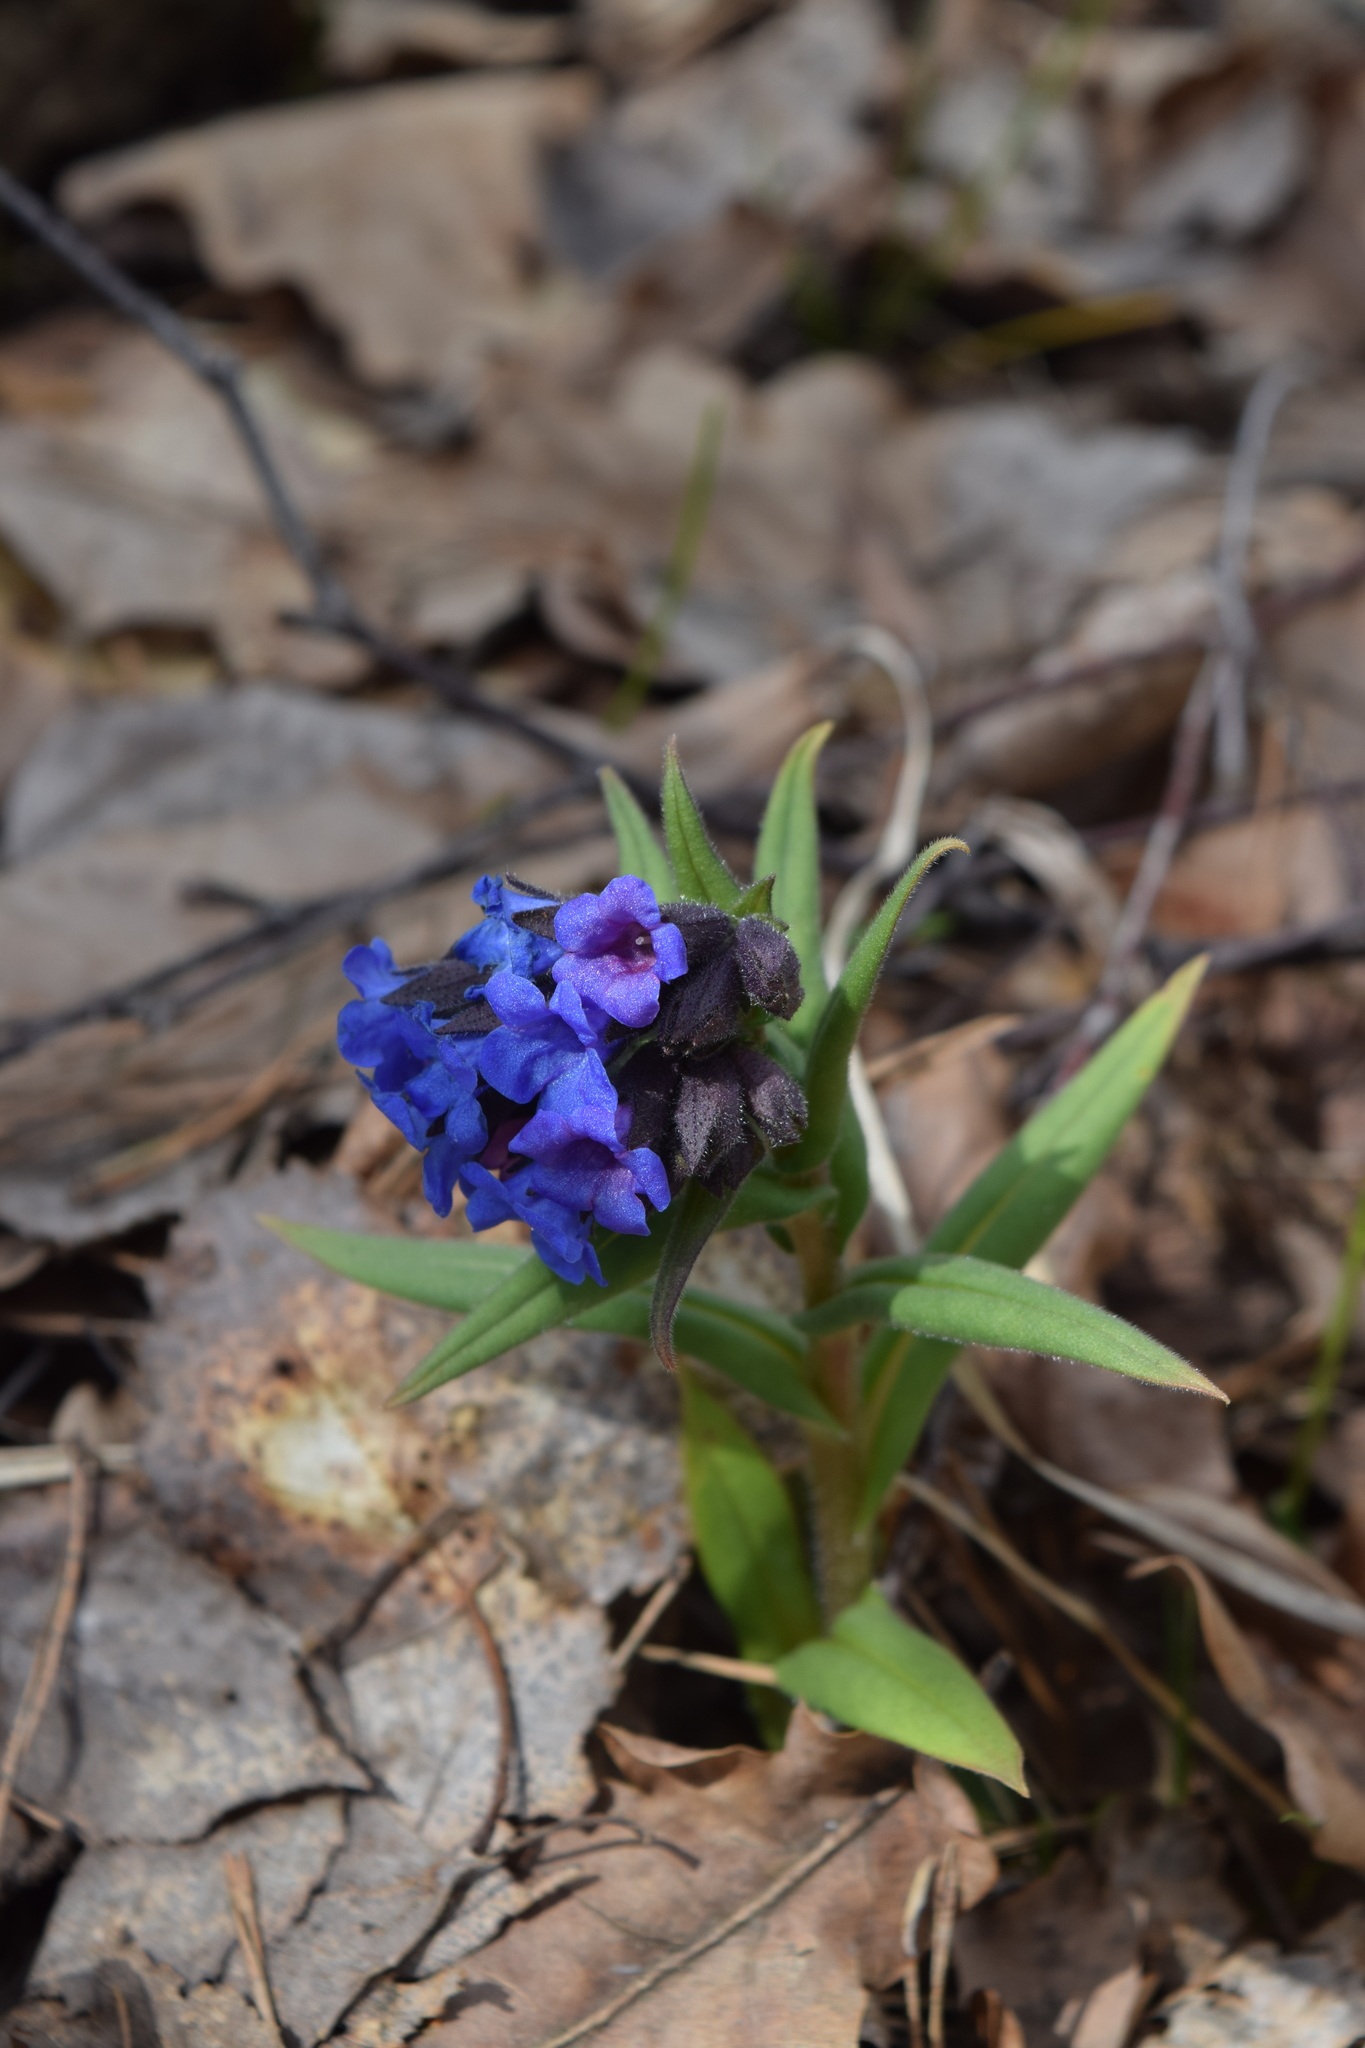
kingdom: Plantae
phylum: Tracheophyta
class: Magnoliopsida
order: Boraginales
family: Boraginaceae
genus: Pulmonaria
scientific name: Pulmonaria angustifolia
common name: Blue cowslip
